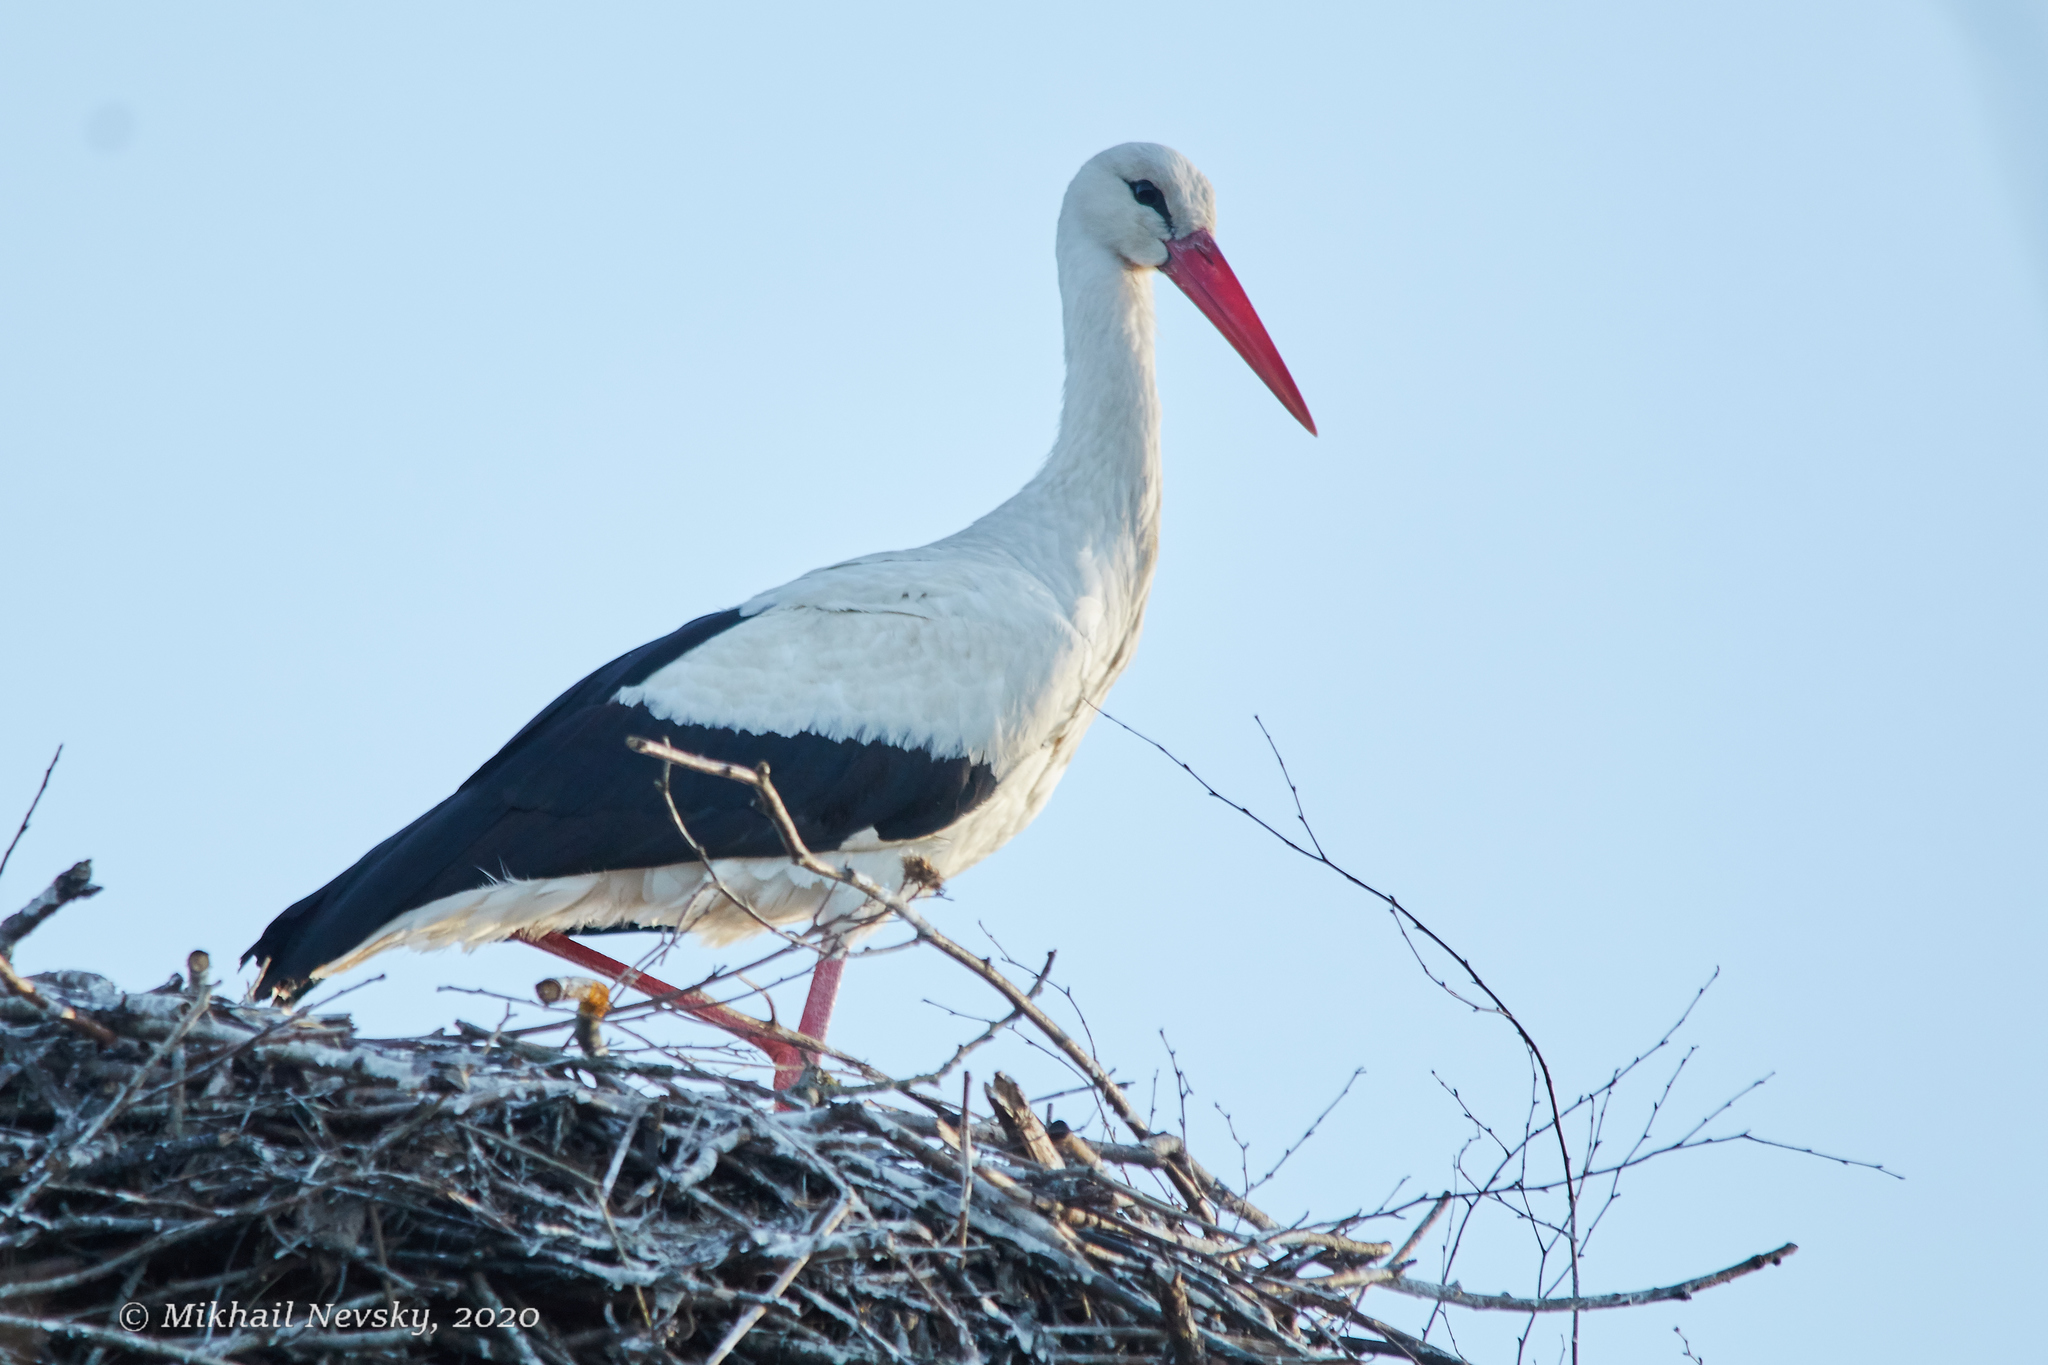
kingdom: Animalia
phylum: Chordata
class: Aves
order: Ciconiiformes
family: Ciconiidae
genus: Ciconia
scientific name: Ciconia ciconia
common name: White stork
